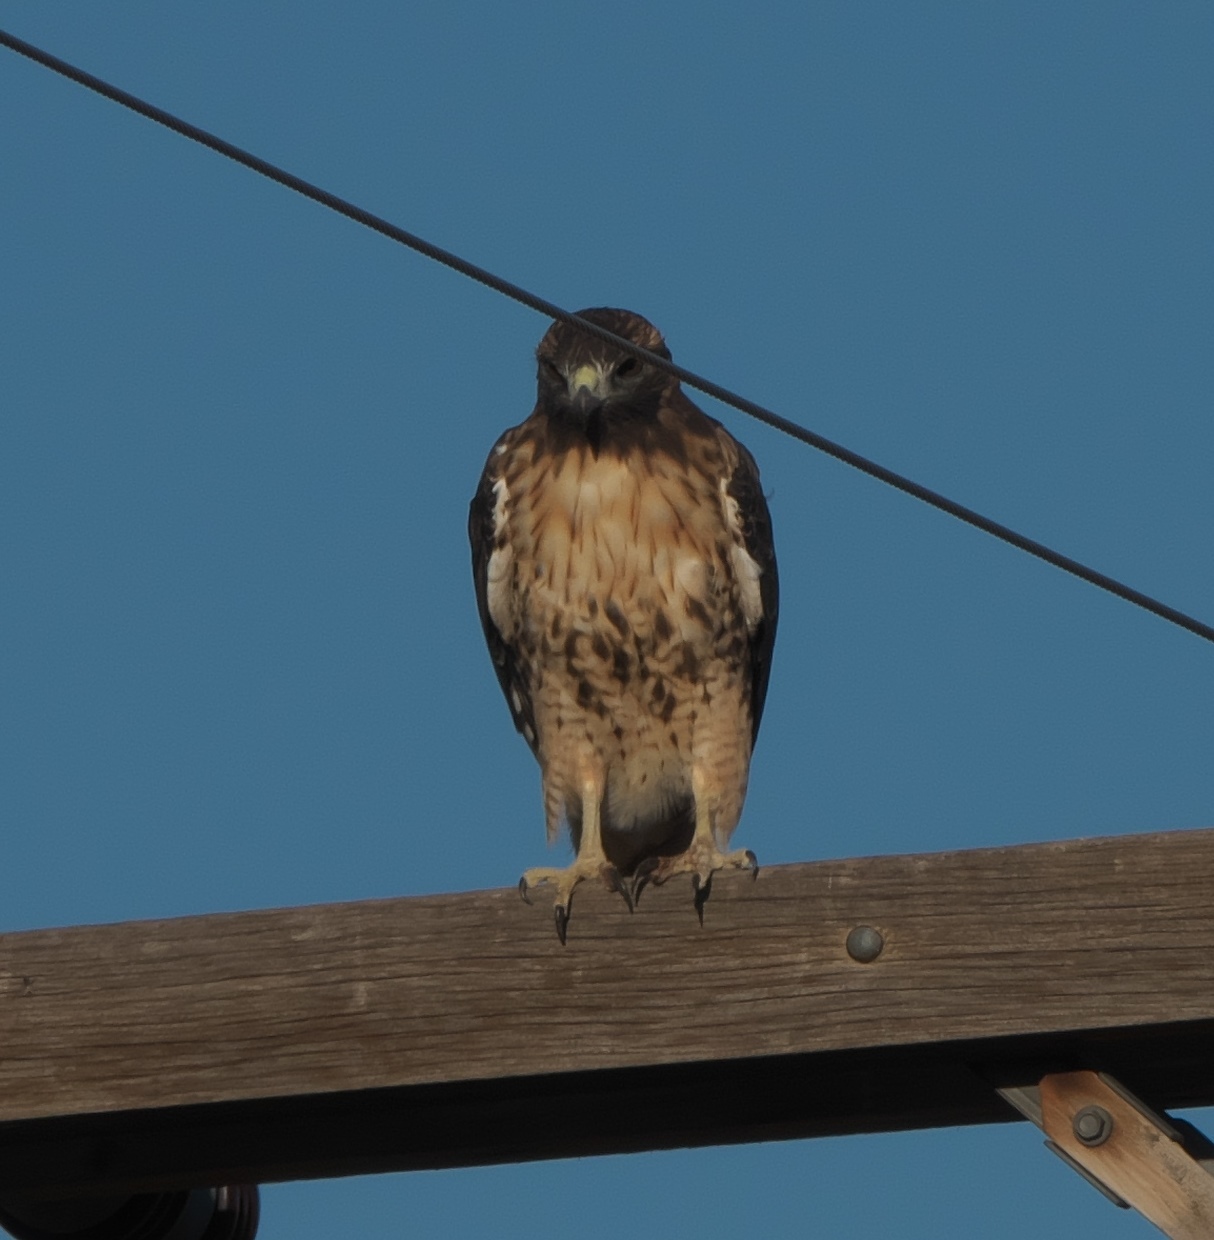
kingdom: Animalia
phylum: Chordata
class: Aves
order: Accipitriformes
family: Accipitridae
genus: Buteo
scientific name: Buteo jamaicensis
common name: Red-tailed hawk
